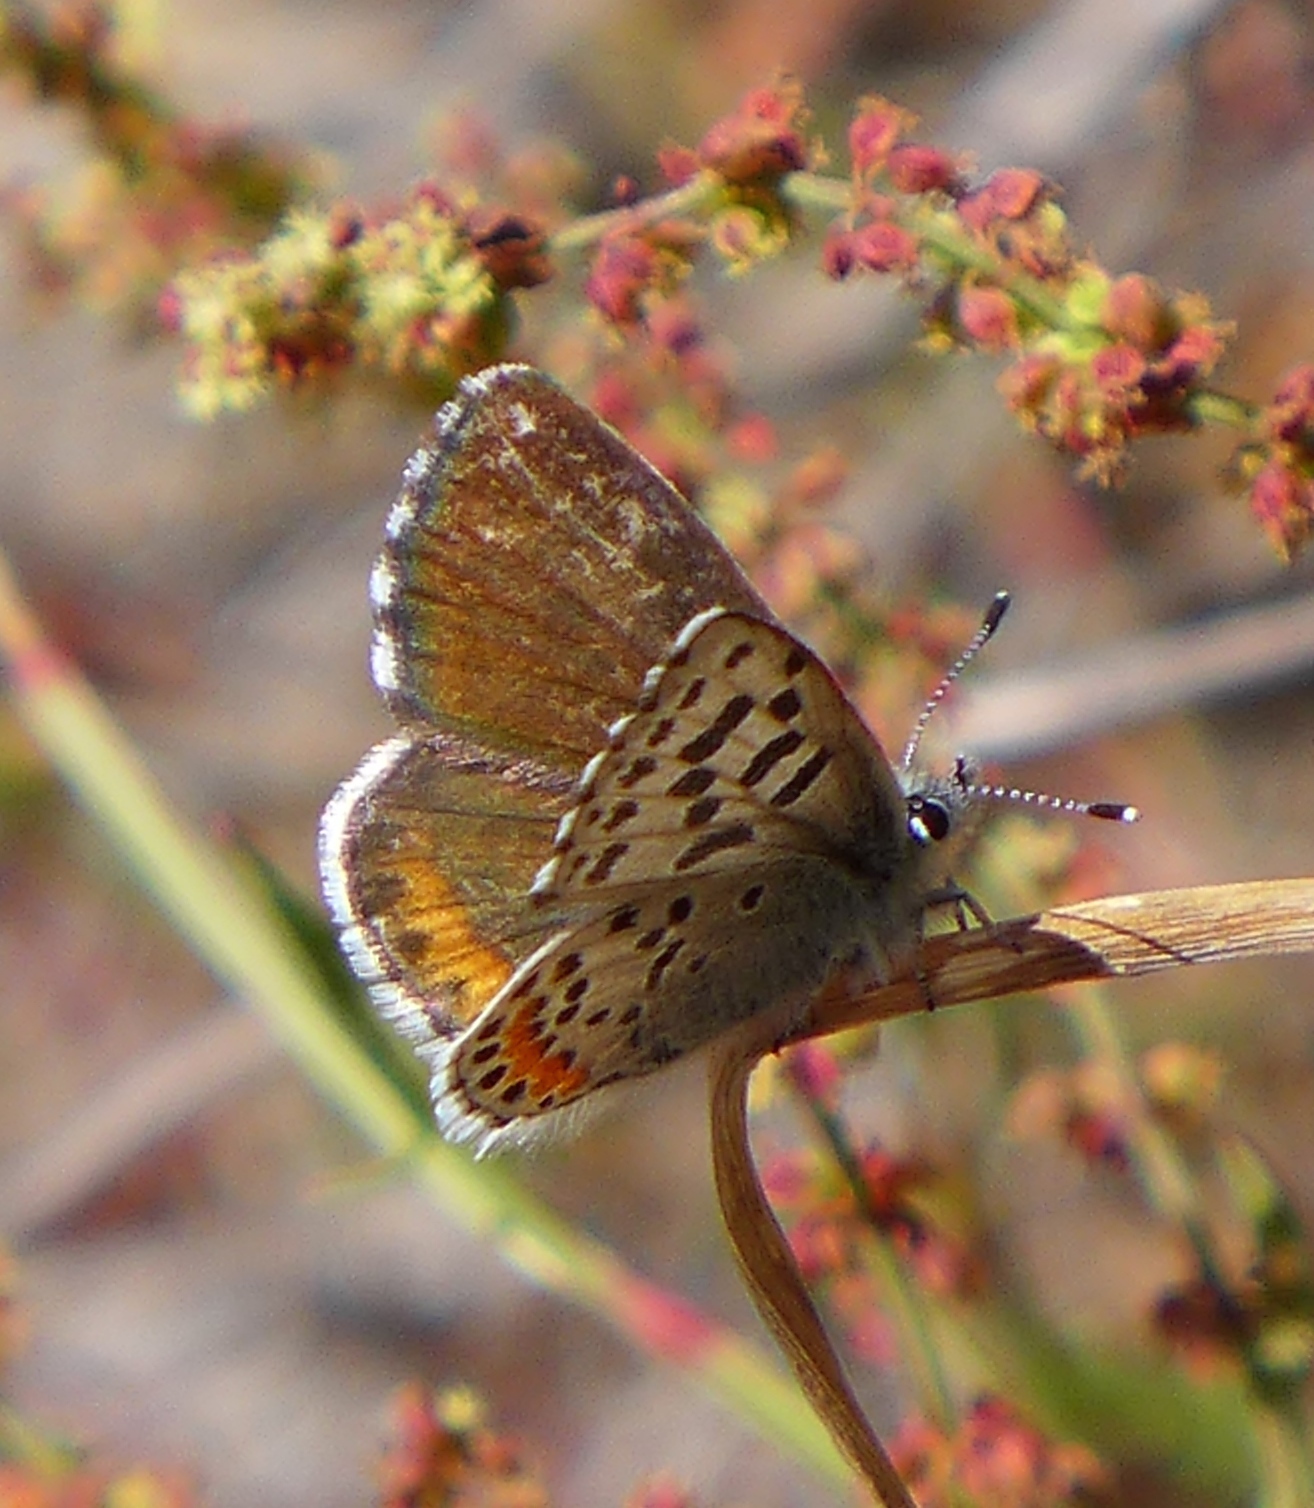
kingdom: Animalia
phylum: Arthropoda
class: Insecta
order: Lepidoptera
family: Lycaenidae
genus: Euphilotes
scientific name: Euphilotes enoptes
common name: Dotted blue
